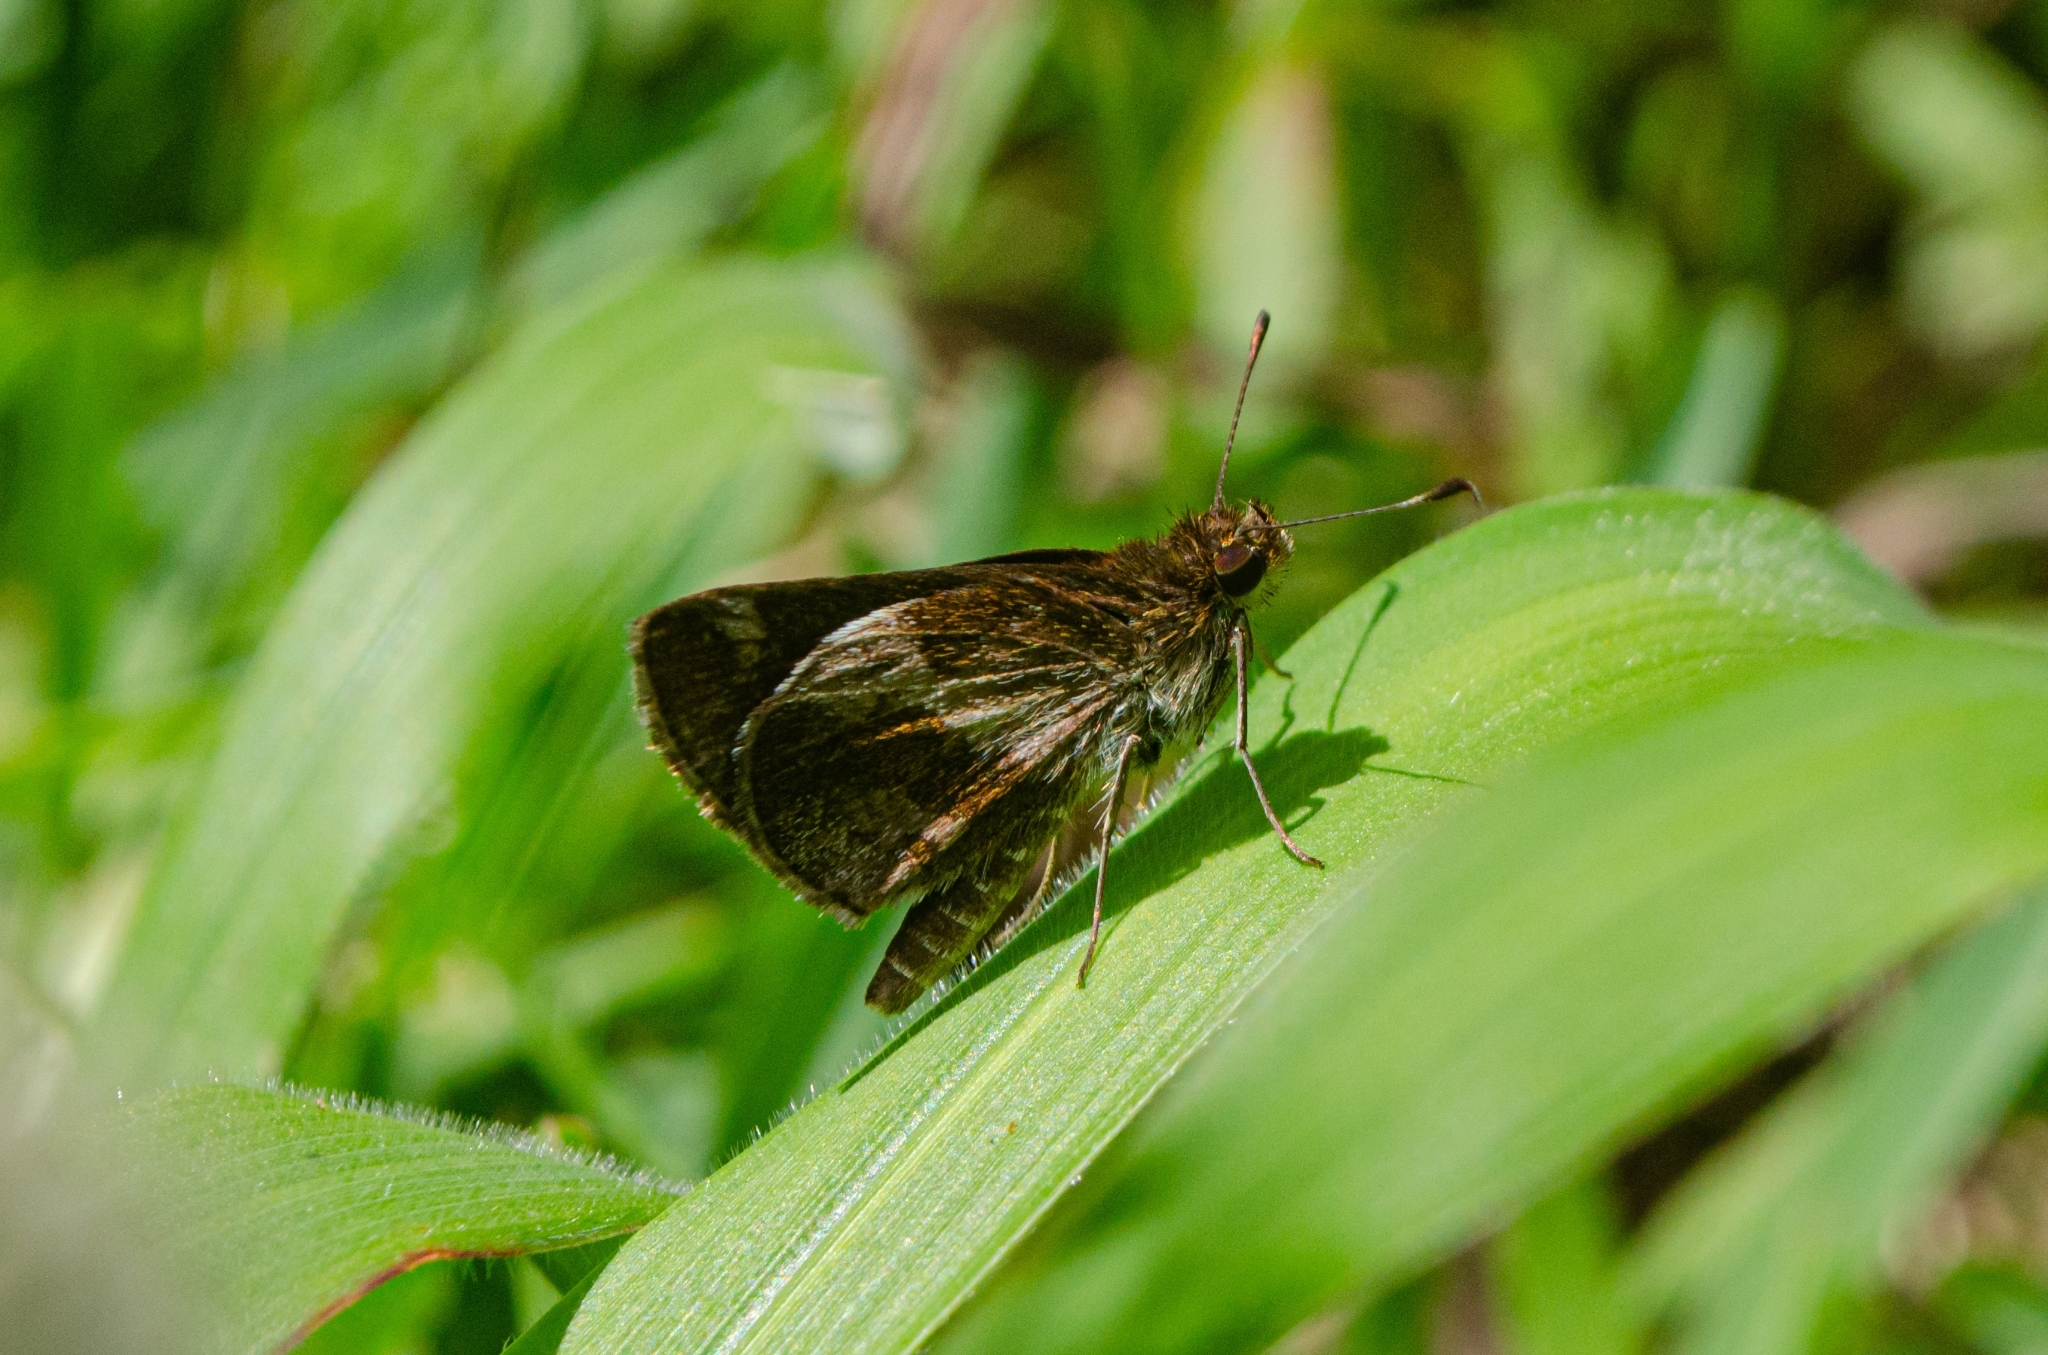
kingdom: Animalia
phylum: Arthropoda
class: Insecta
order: Lepidoptera
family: Hesperiidae
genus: Callimormus
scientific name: Callimormus
